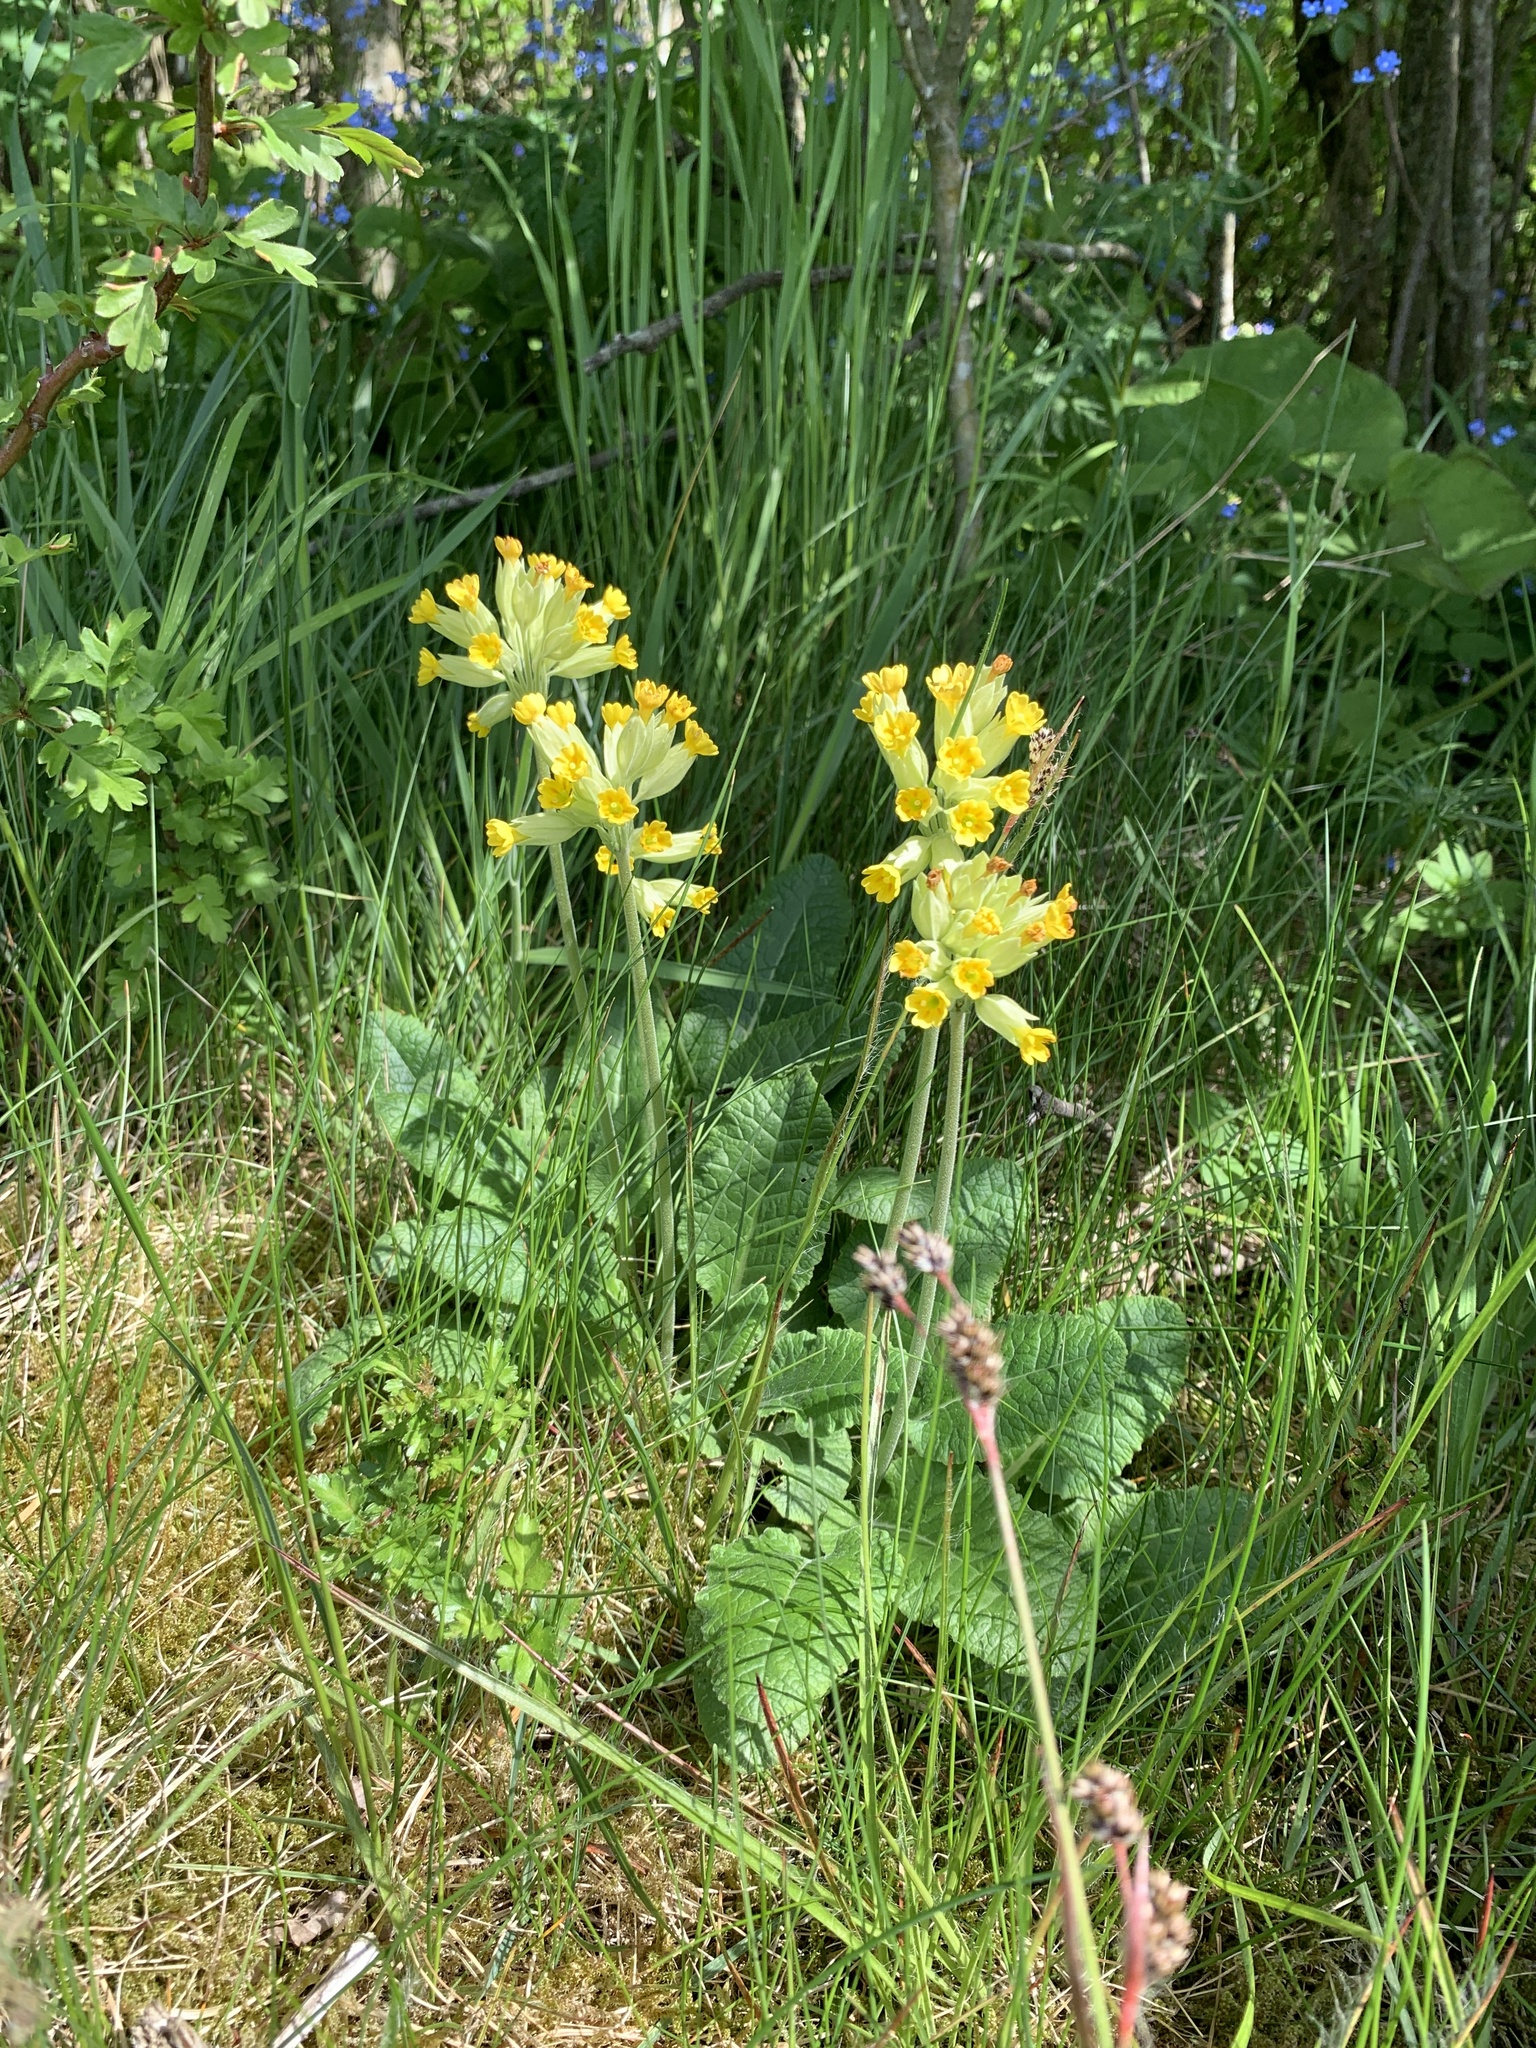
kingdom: Plantae
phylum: Tracheophyta
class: Magnoliopsida
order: Ericales
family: Primulaceae
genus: Primula
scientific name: Primula veris
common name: Cowslip
